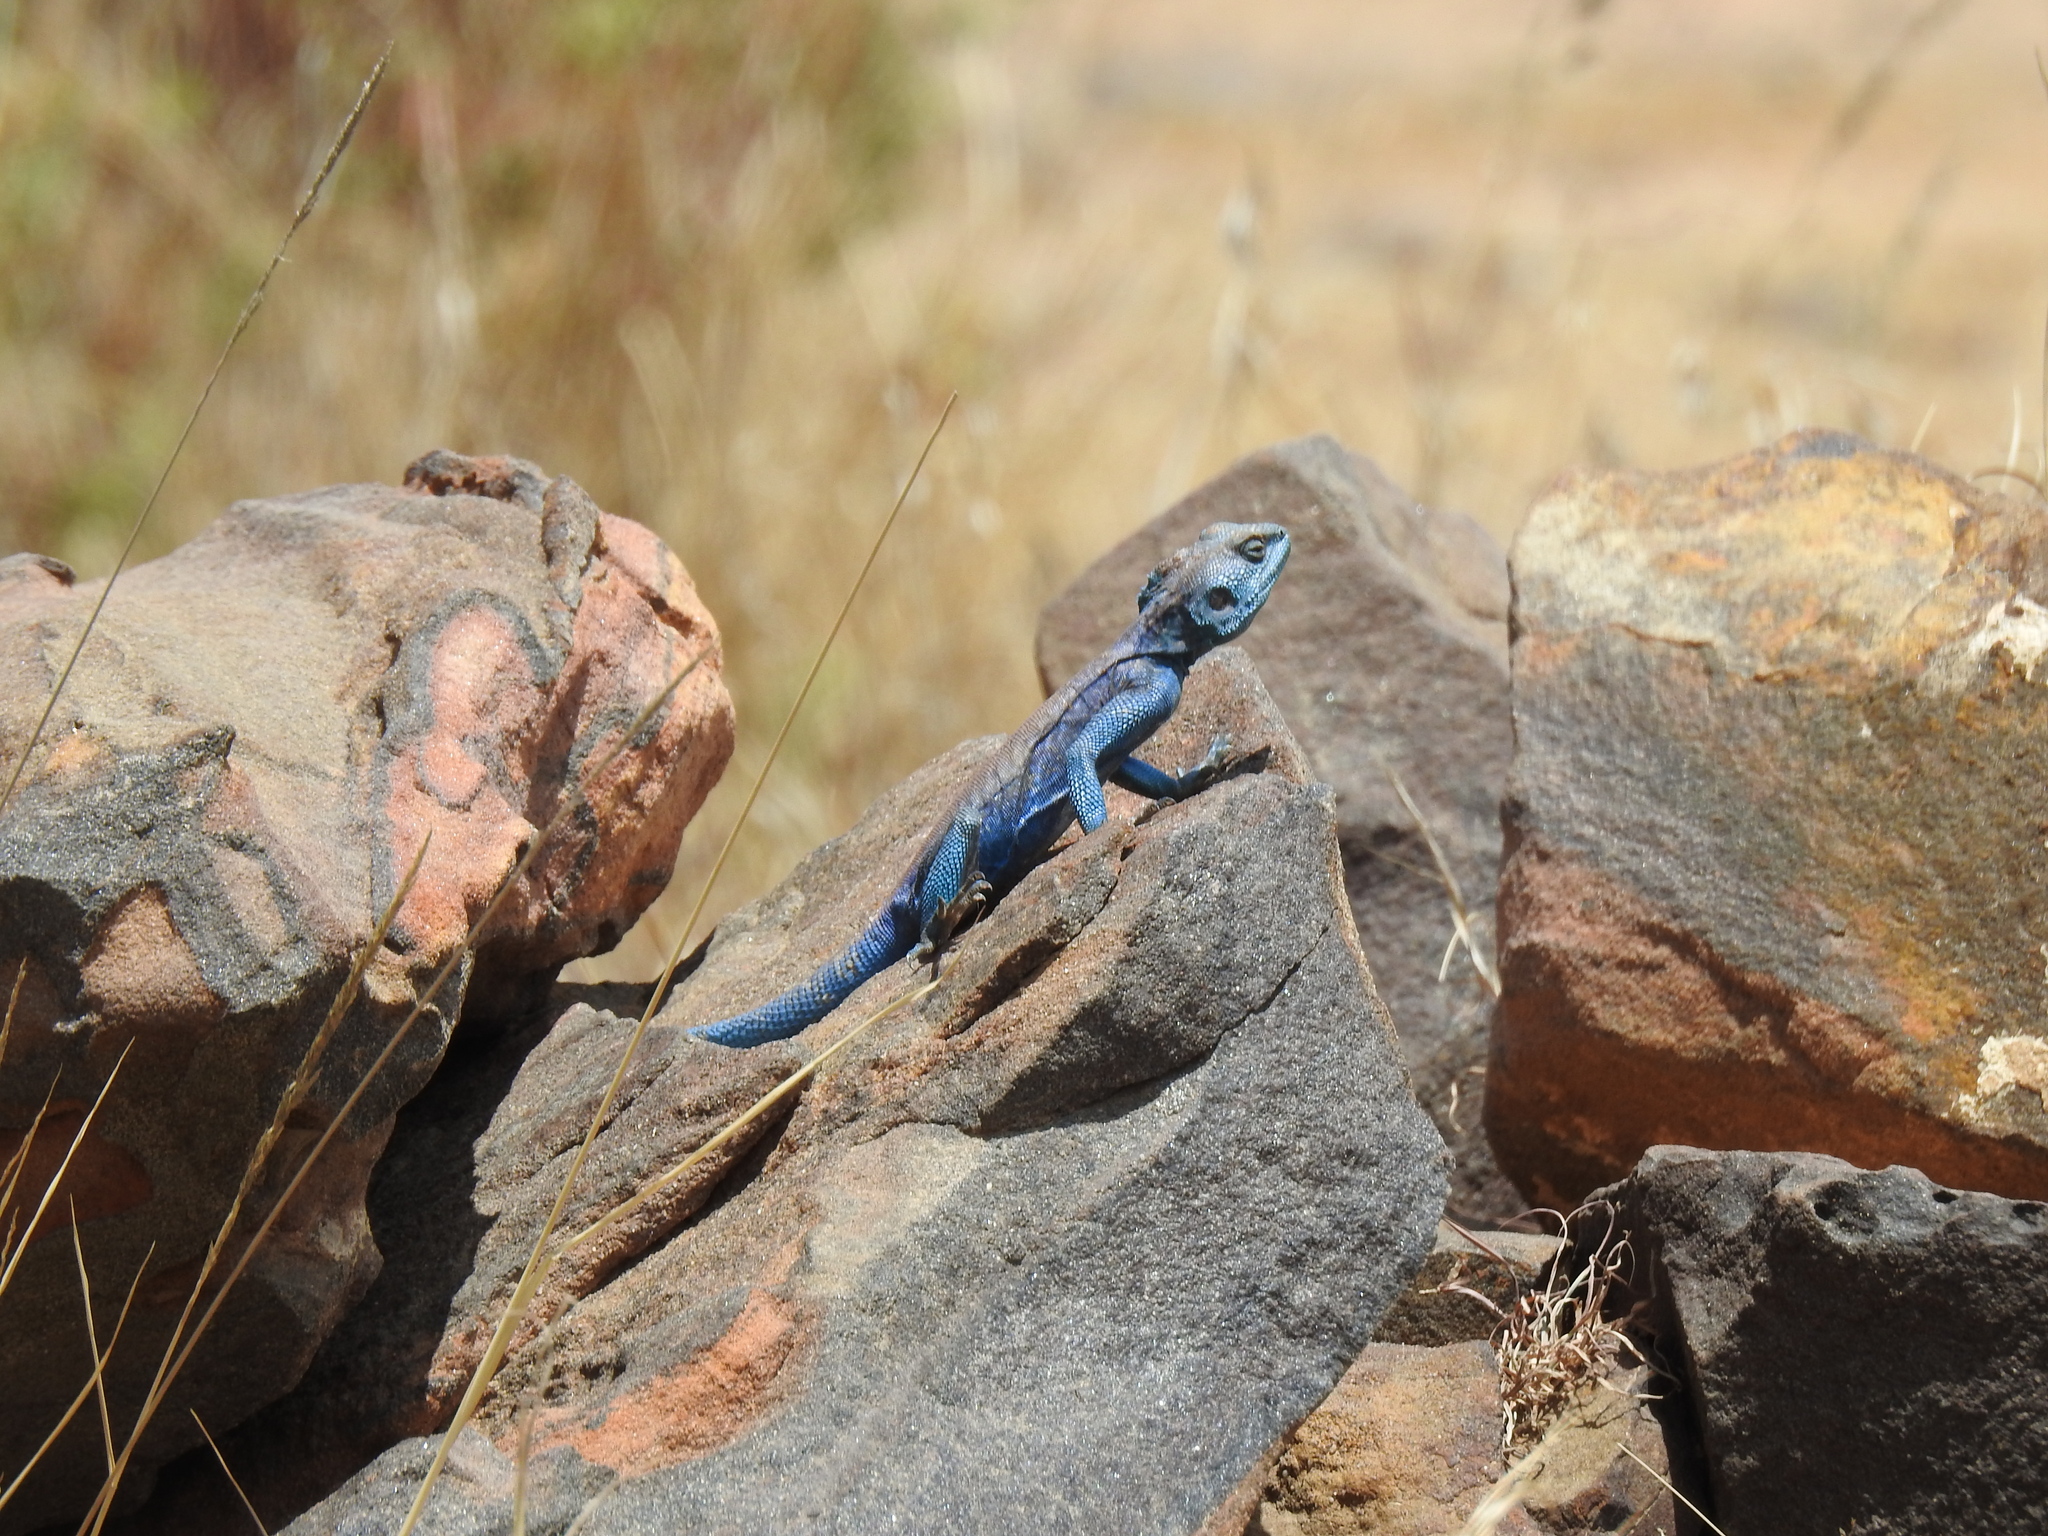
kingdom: Animalia
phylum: Chordata
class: Squamata
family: Agamidae
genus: Acanthocercus
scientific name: Acanthocercus yemensis
